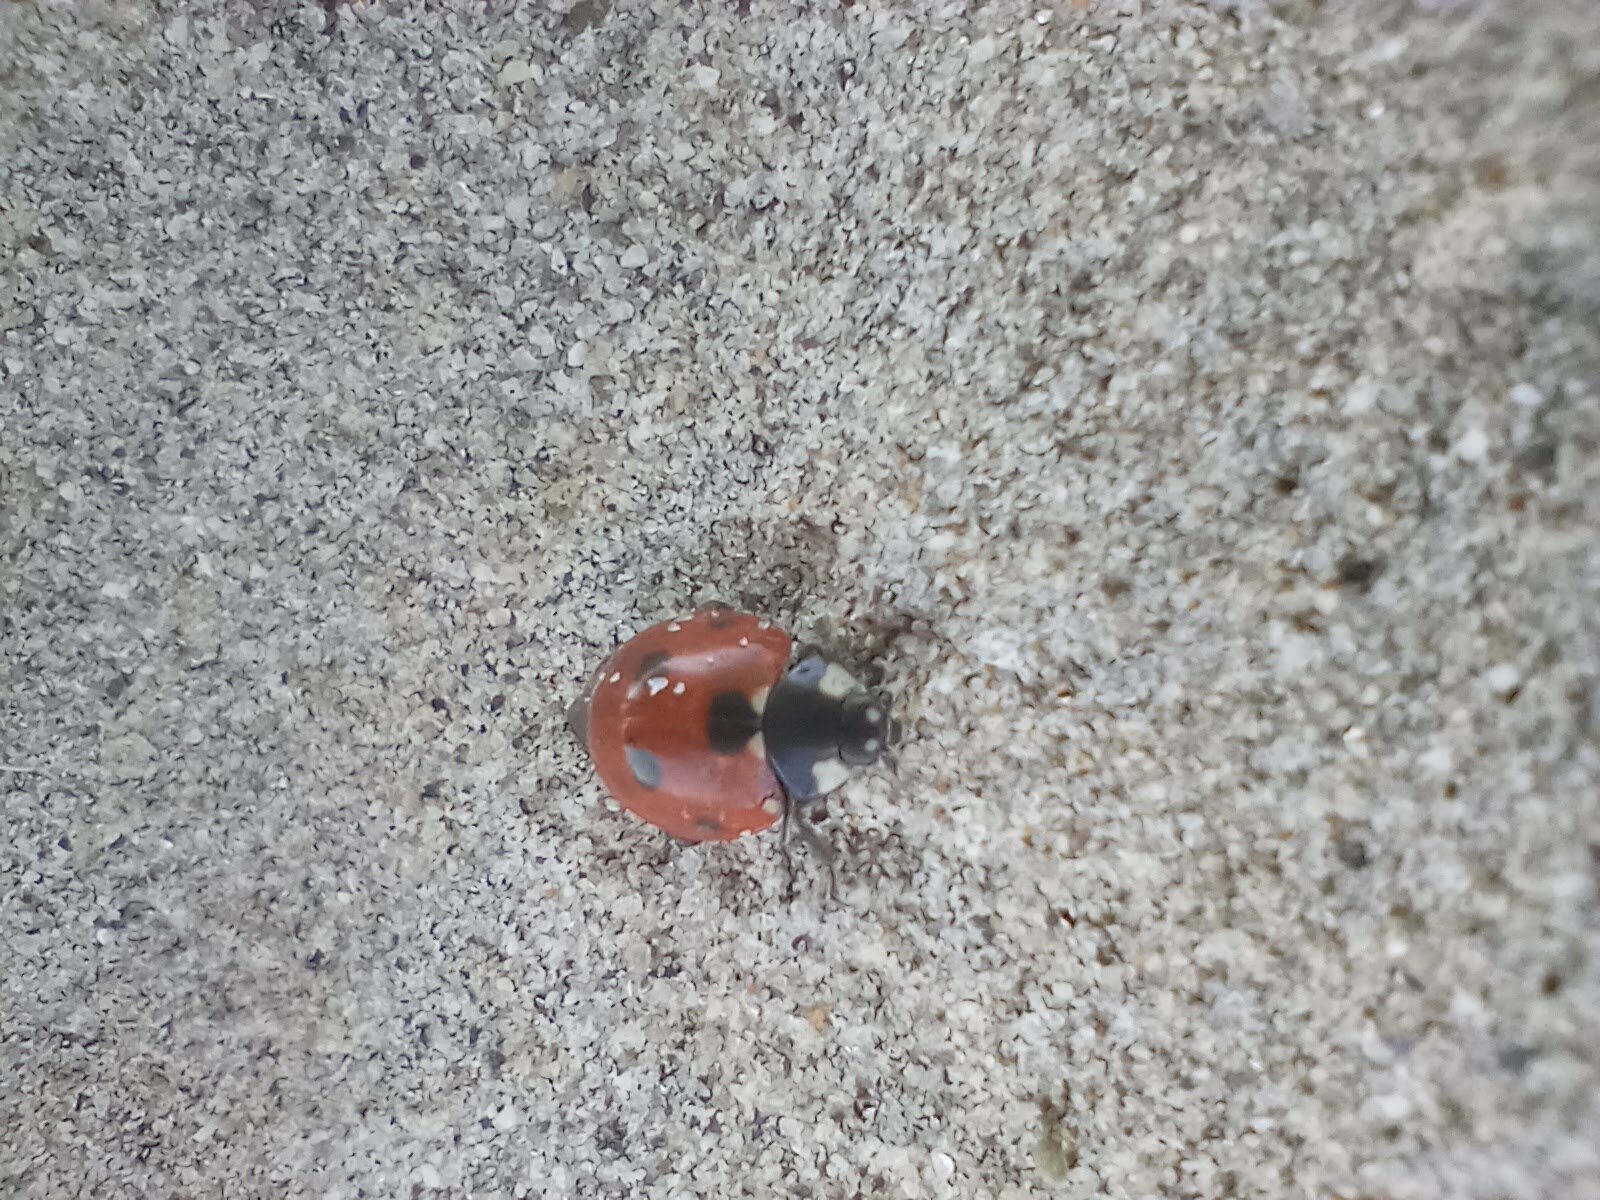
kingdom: Animalia
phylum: Arthropoda
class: Insecta
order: Coleoptera
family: Coccinellidae
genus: Coccinella
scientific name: Coccinella septempunctata
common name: Sevenspotted lady beetle
